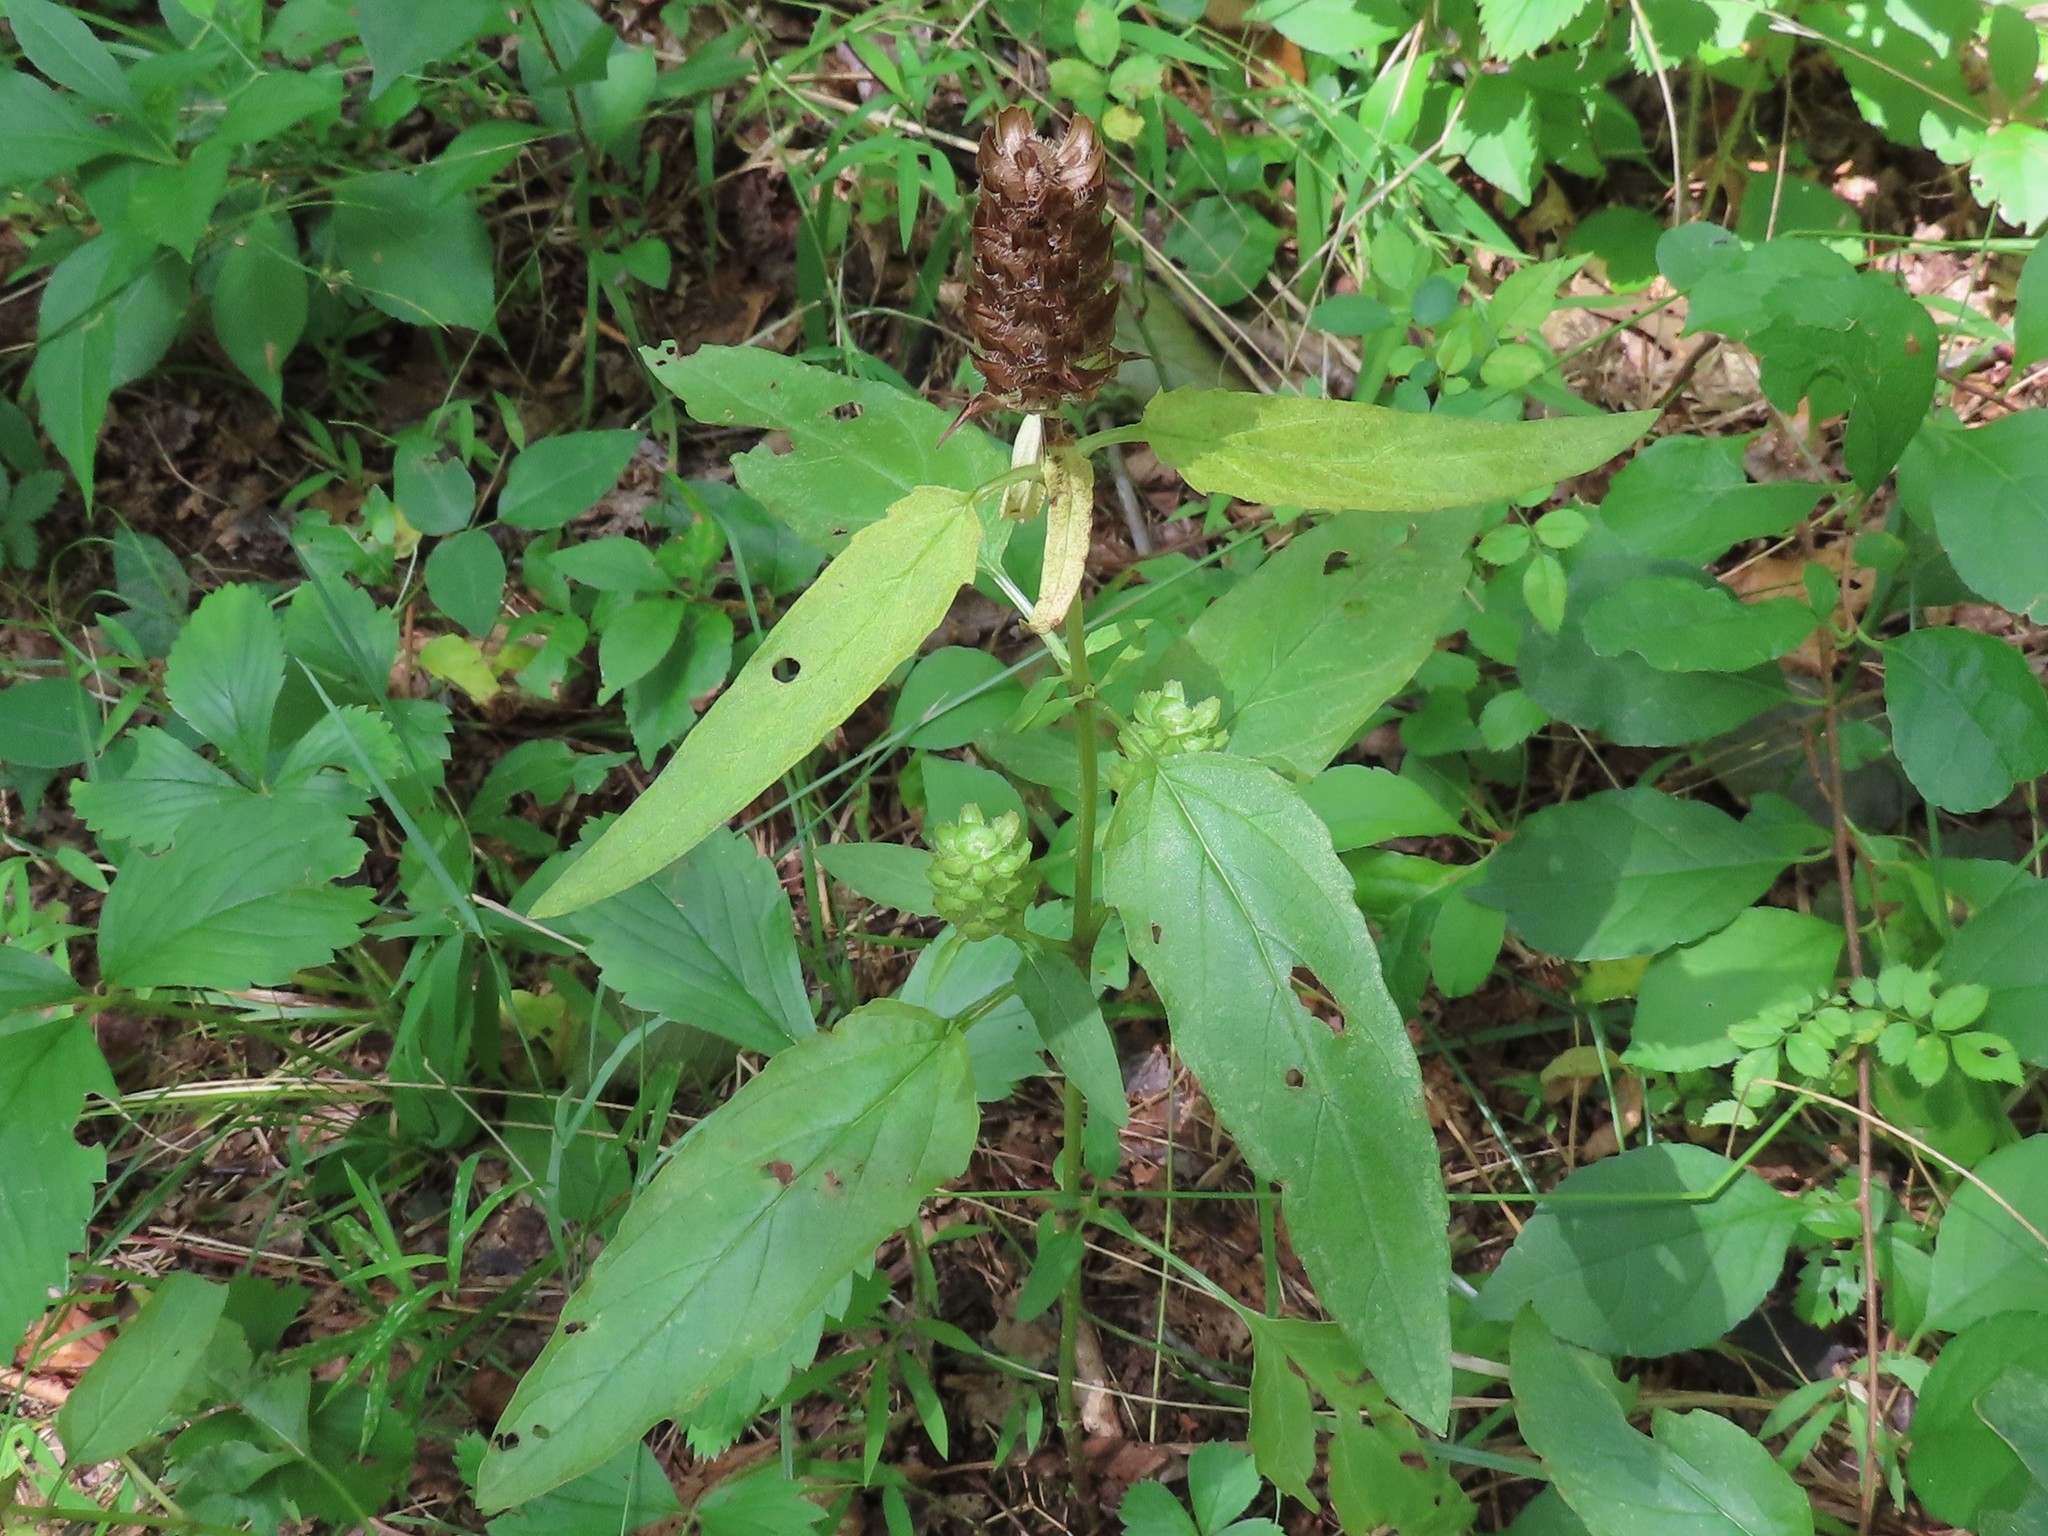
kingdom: Plantae
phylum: Tracheophyta
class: Magnoliopsida
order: Lamiales
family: Lamiaceae
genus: Prunella
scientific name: Prunella vulgaris
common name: Heal-all
